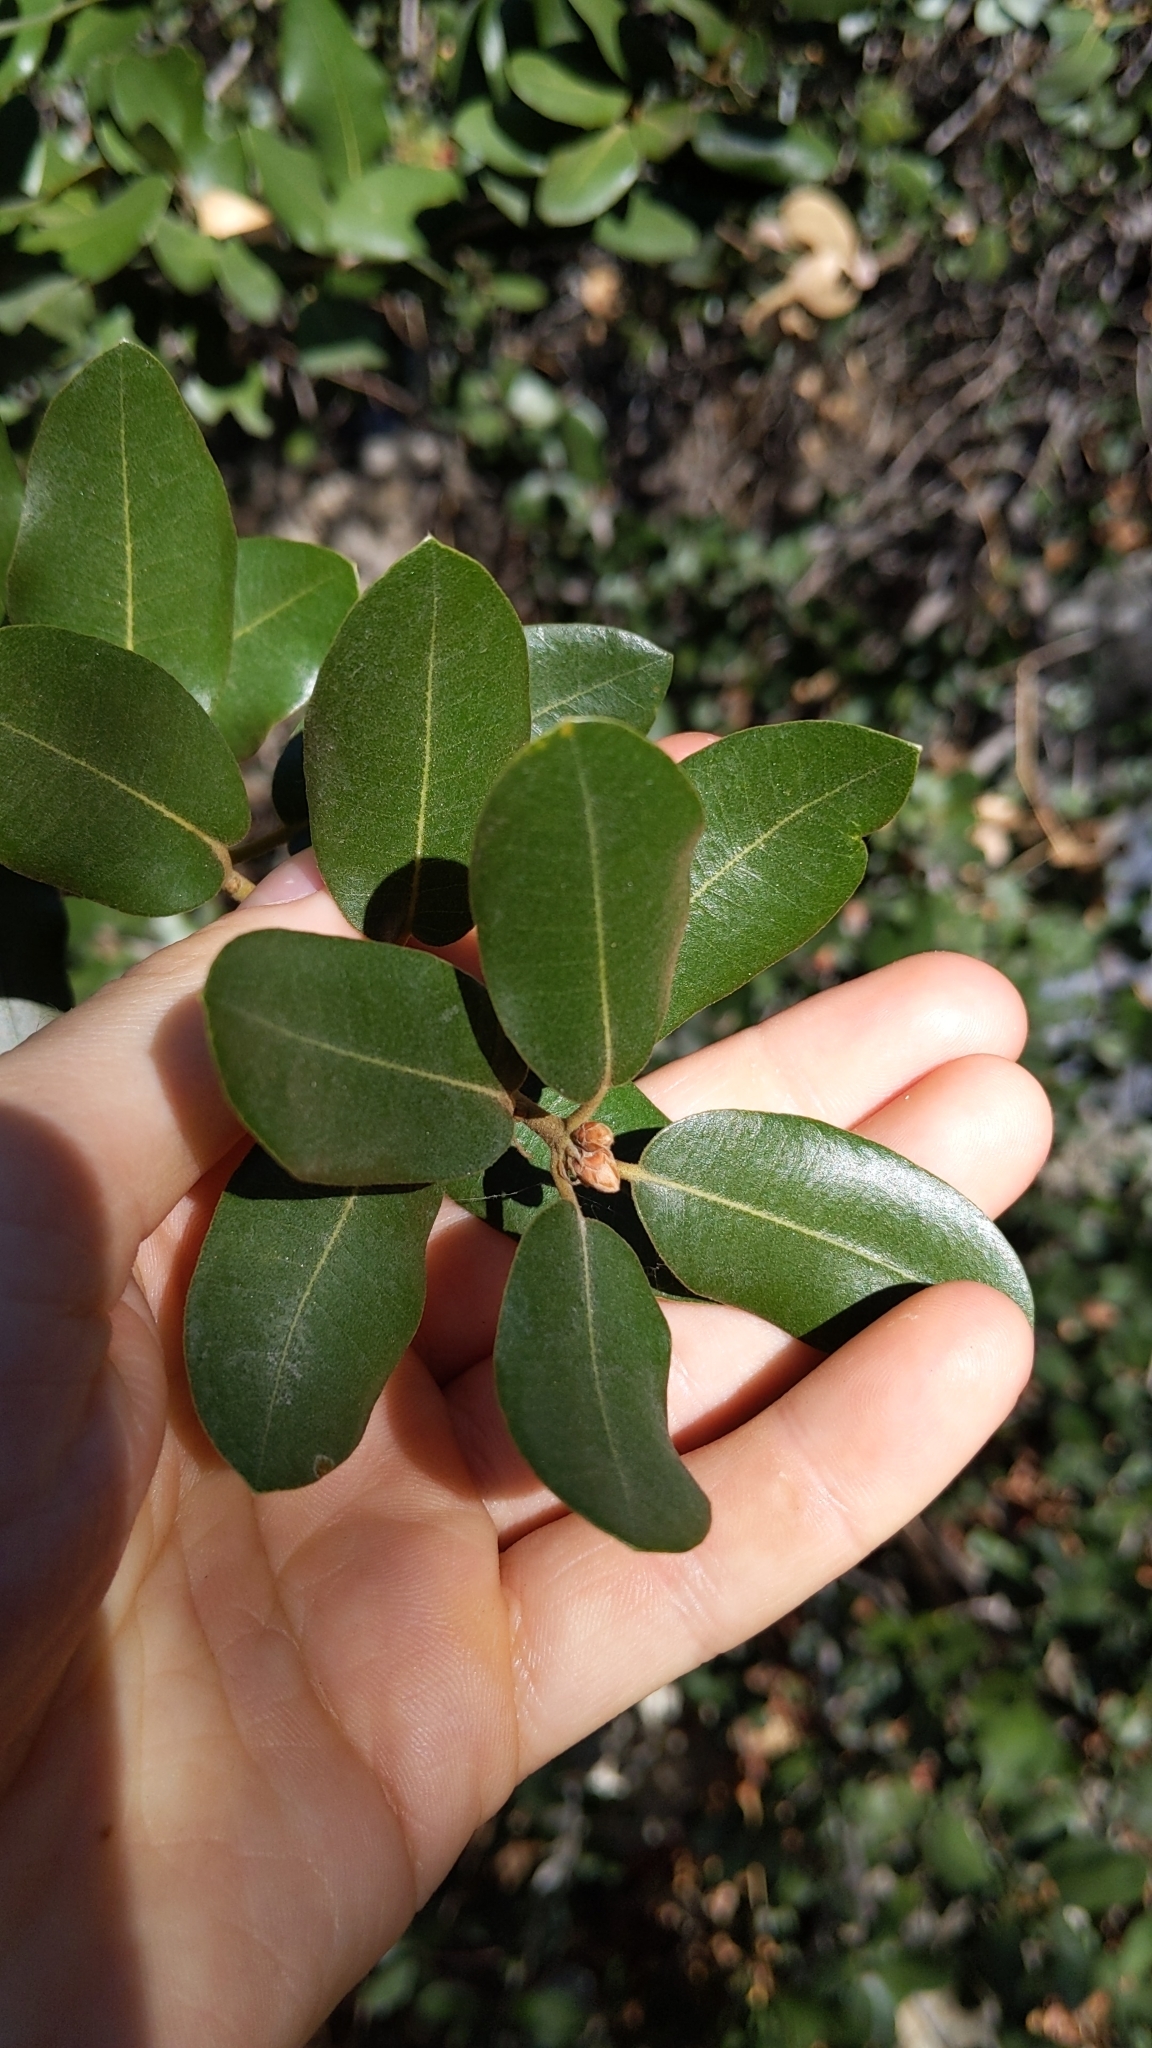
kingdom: Plantae
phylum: Tracheophyta
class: Magnoliopsida
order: Fagales
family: Fagaceae
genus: Quercus
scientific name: Quercus chrysolepis
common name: Canyon live oak
